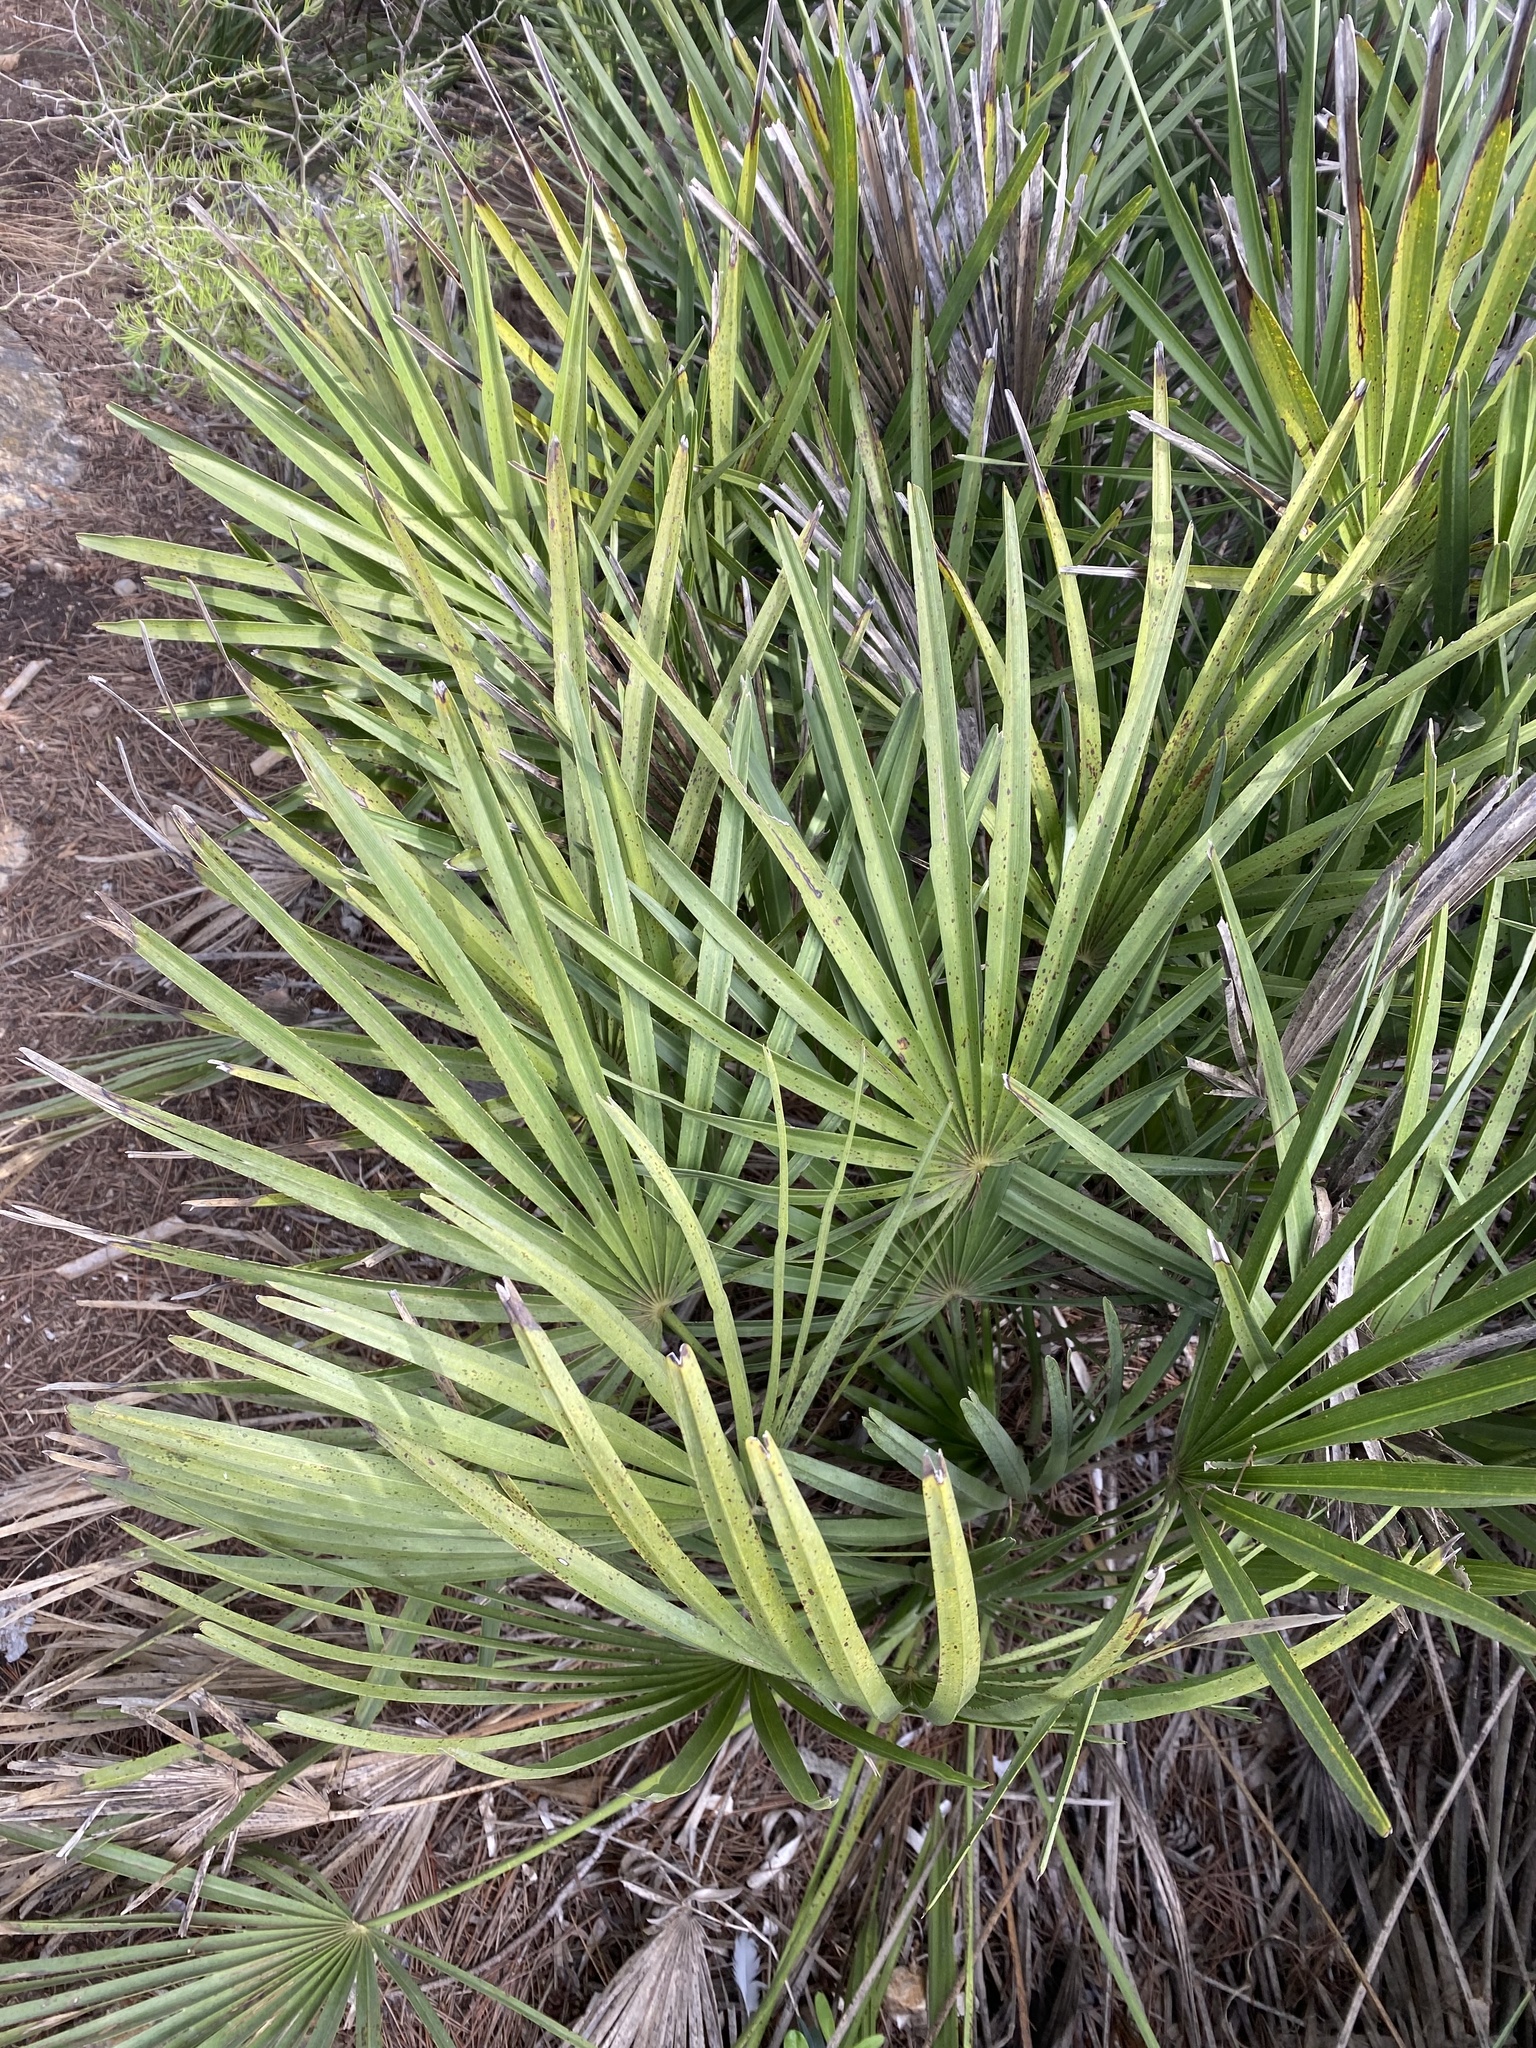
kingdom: Plantae
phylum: Tracheophyta
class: Liliopsida
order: Arecales
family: Arecaceae
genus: Chamaerops
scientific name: Chamaerops humilis
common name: Dwarf fan palm
